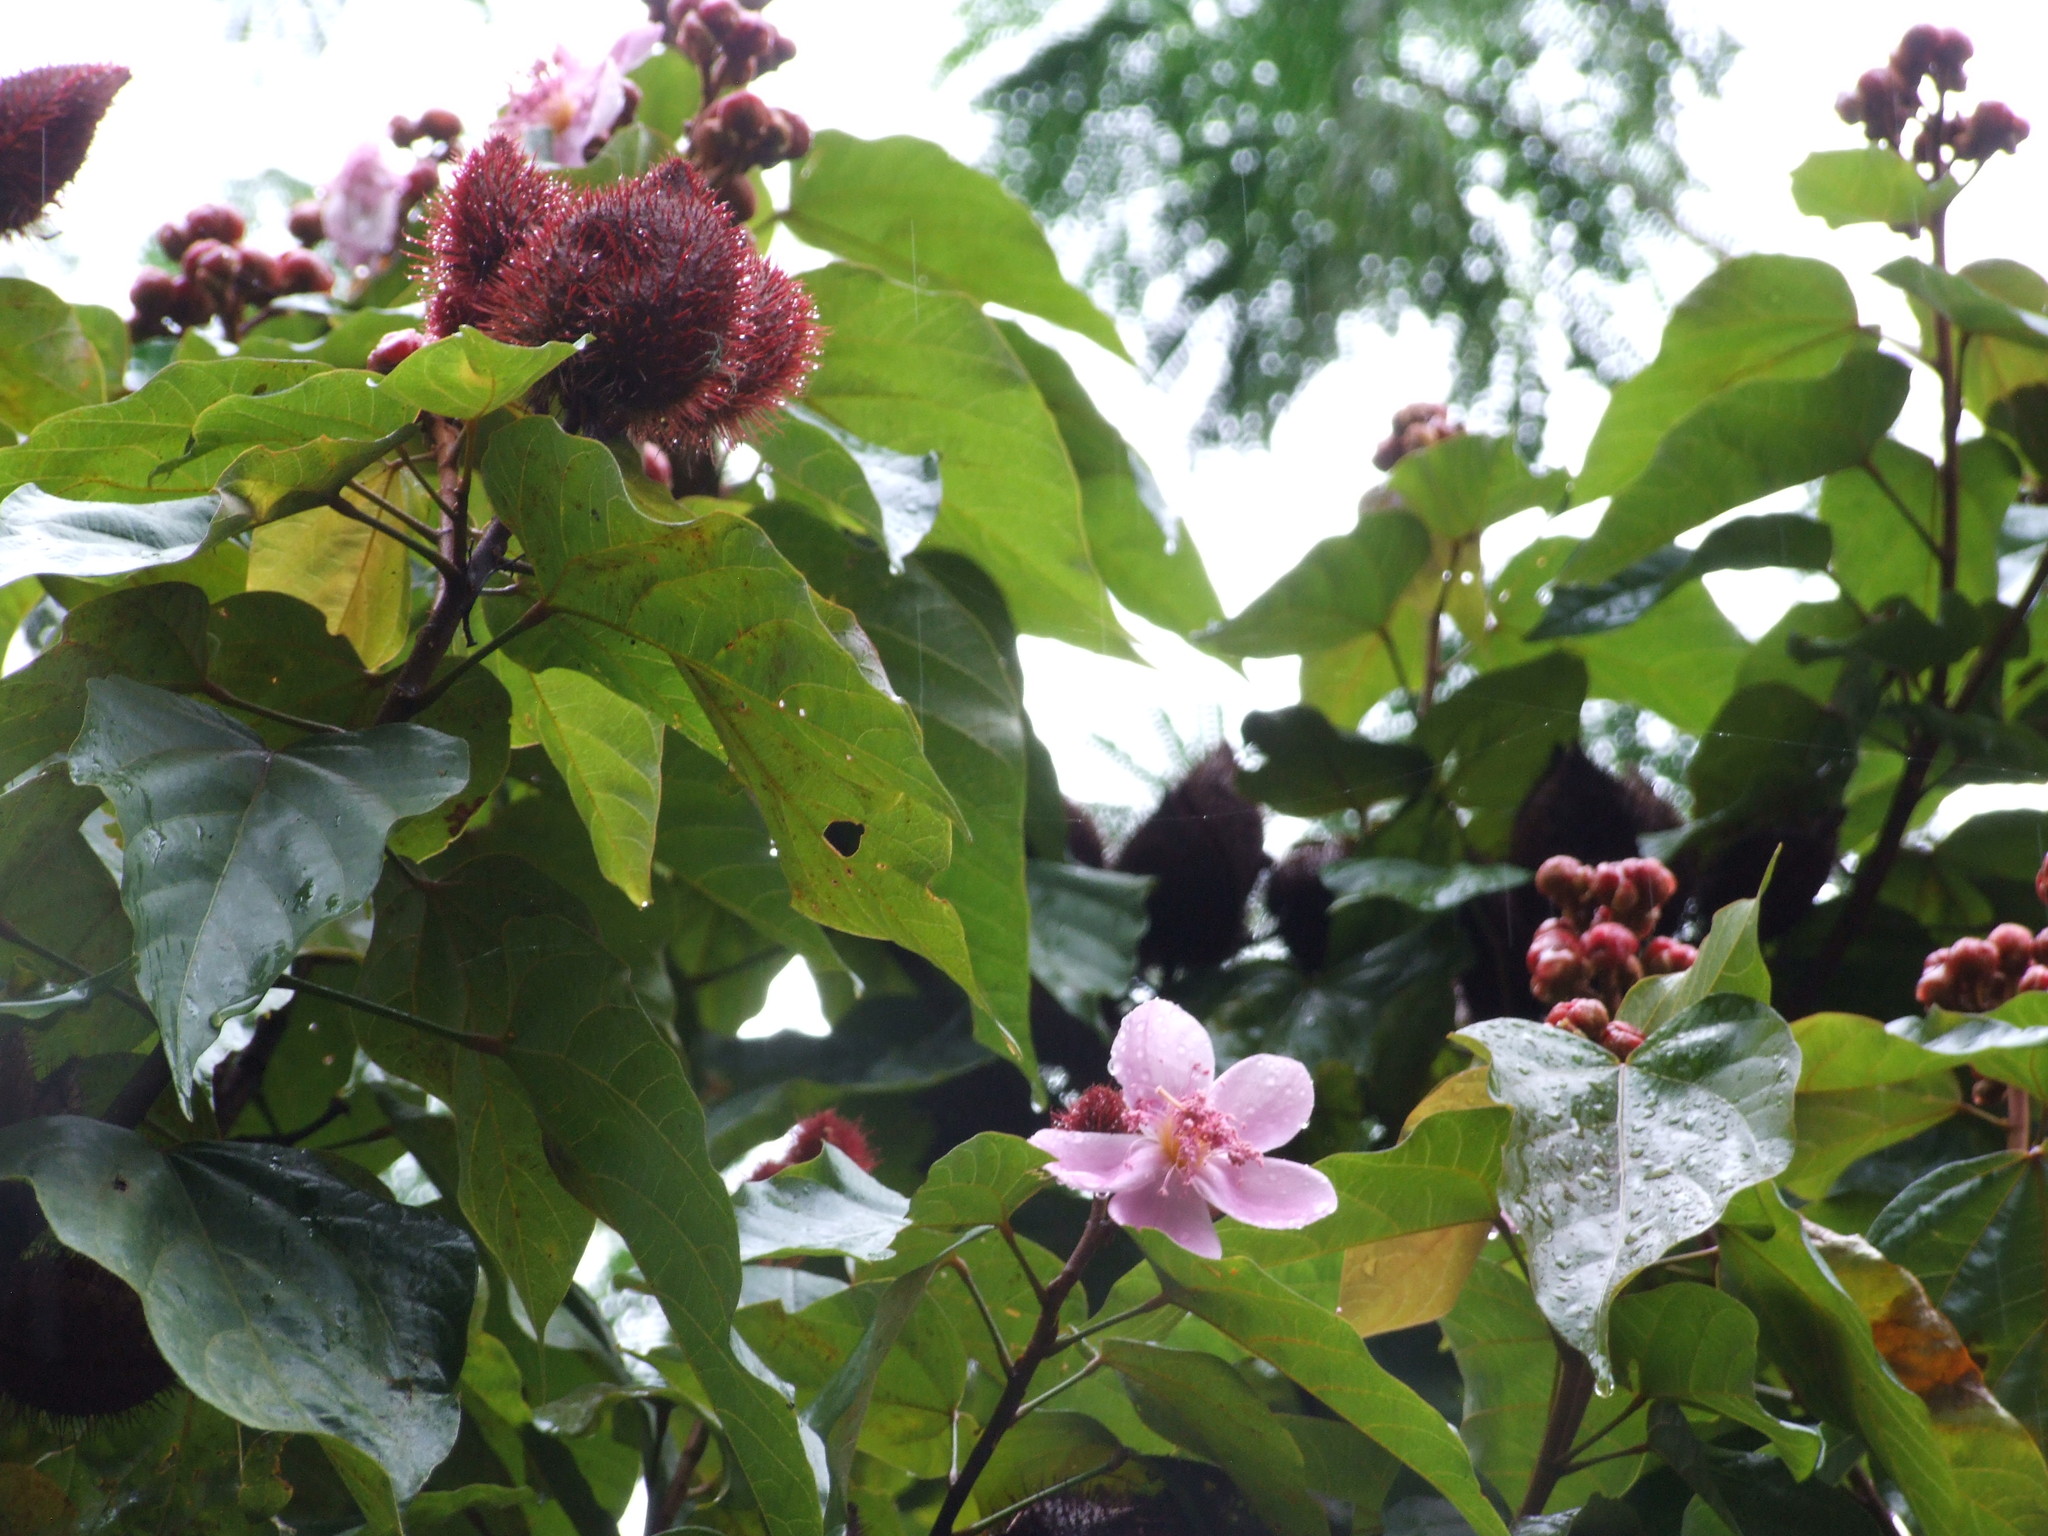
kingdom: Plantae
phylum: Tracheophyta
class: Magnoliopsida
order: Malvales
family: Bixaceae
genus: Bixa
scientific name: Bixa orellana
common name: Lipsticktree
